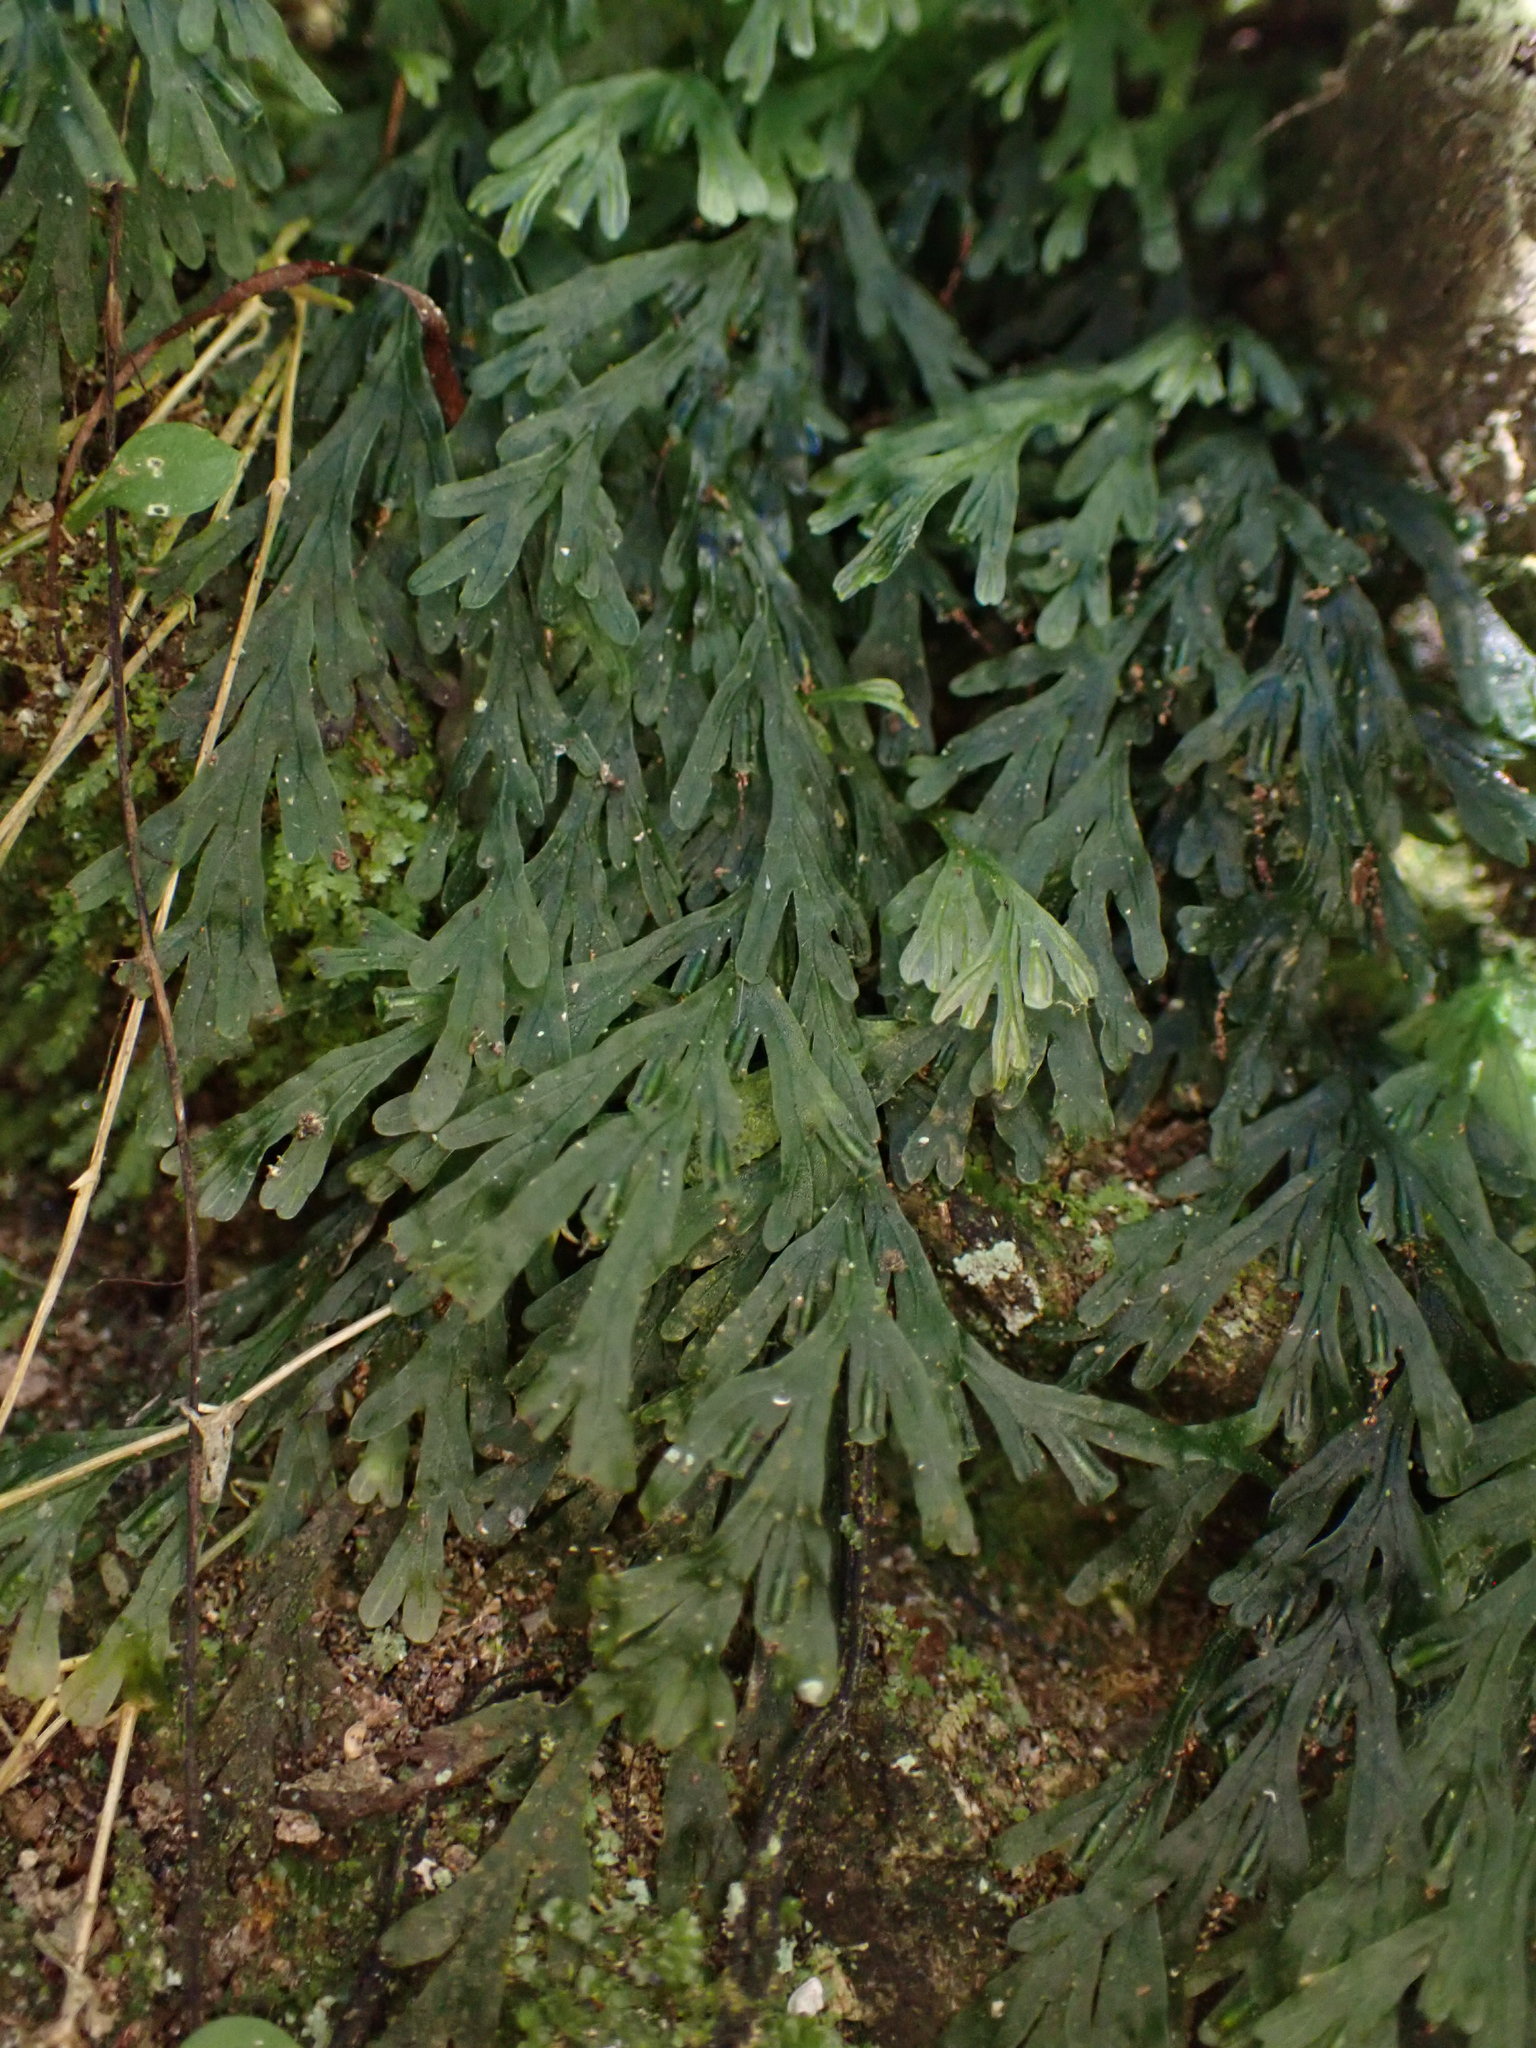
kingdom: Plantae
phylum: Tracheophyta
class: Polypodiopsida
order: Hymenophyllales
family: Hymenophyllaceae
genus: Polyphlebium
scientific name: Polyphlebium endlicherianum
